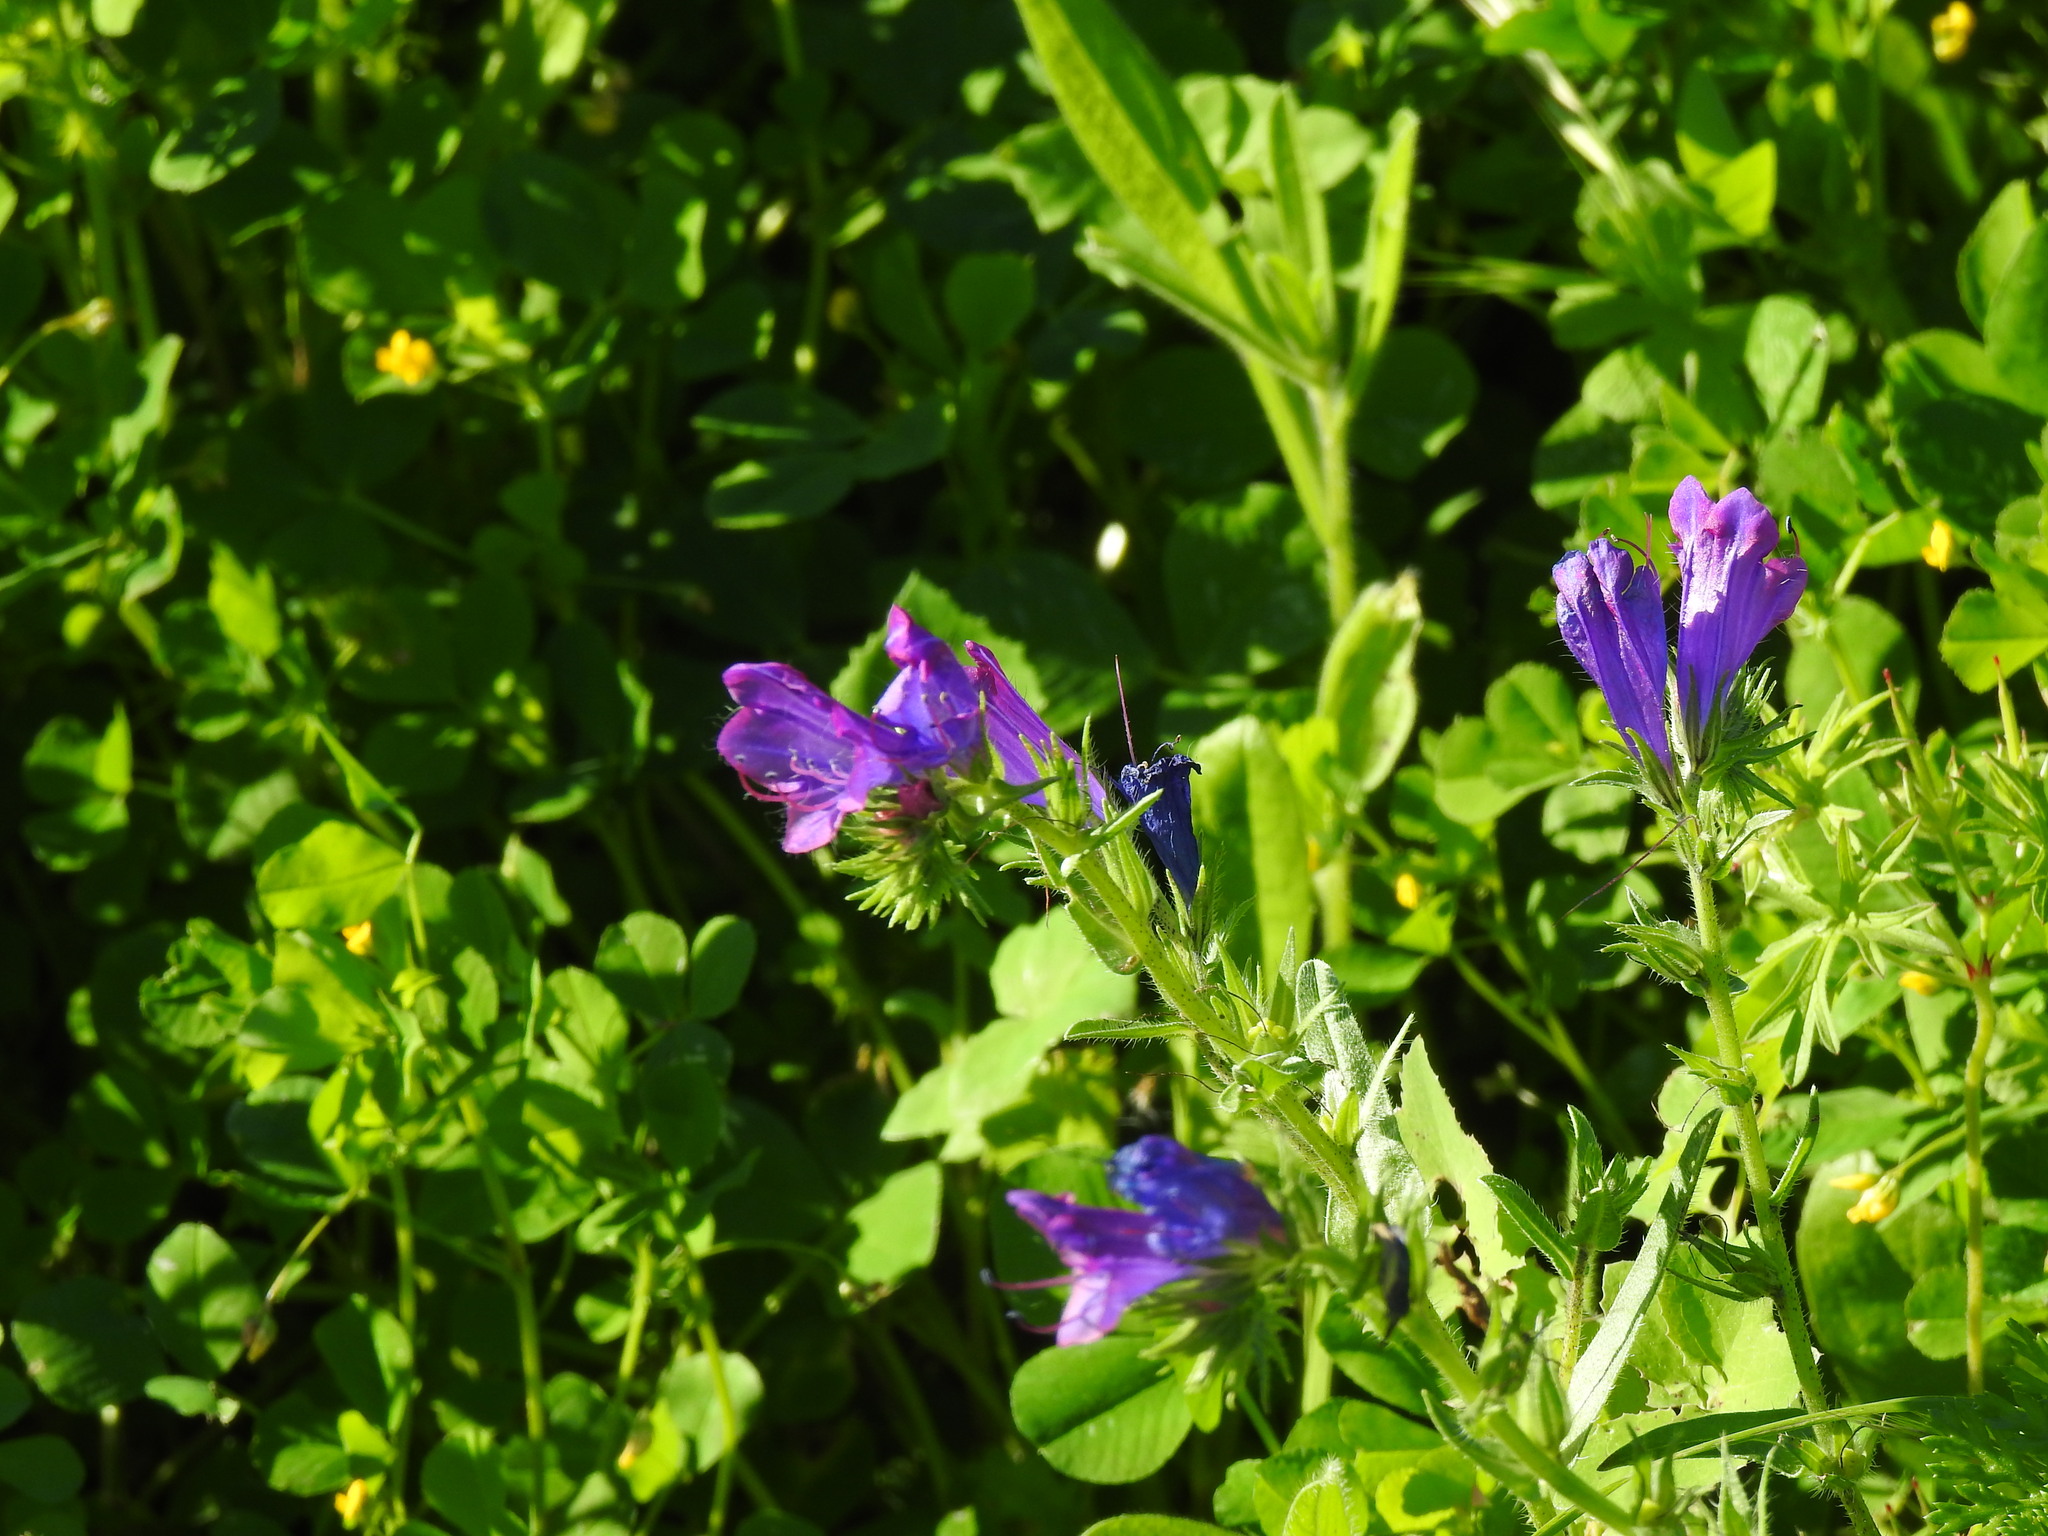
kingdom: Plantae
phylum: Tracheophyta
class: Magnoliopsida
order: Boraginales
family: Boraginaceae
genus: Echium
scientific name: Echium plantagineum
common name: Purple viper's-bugloss
